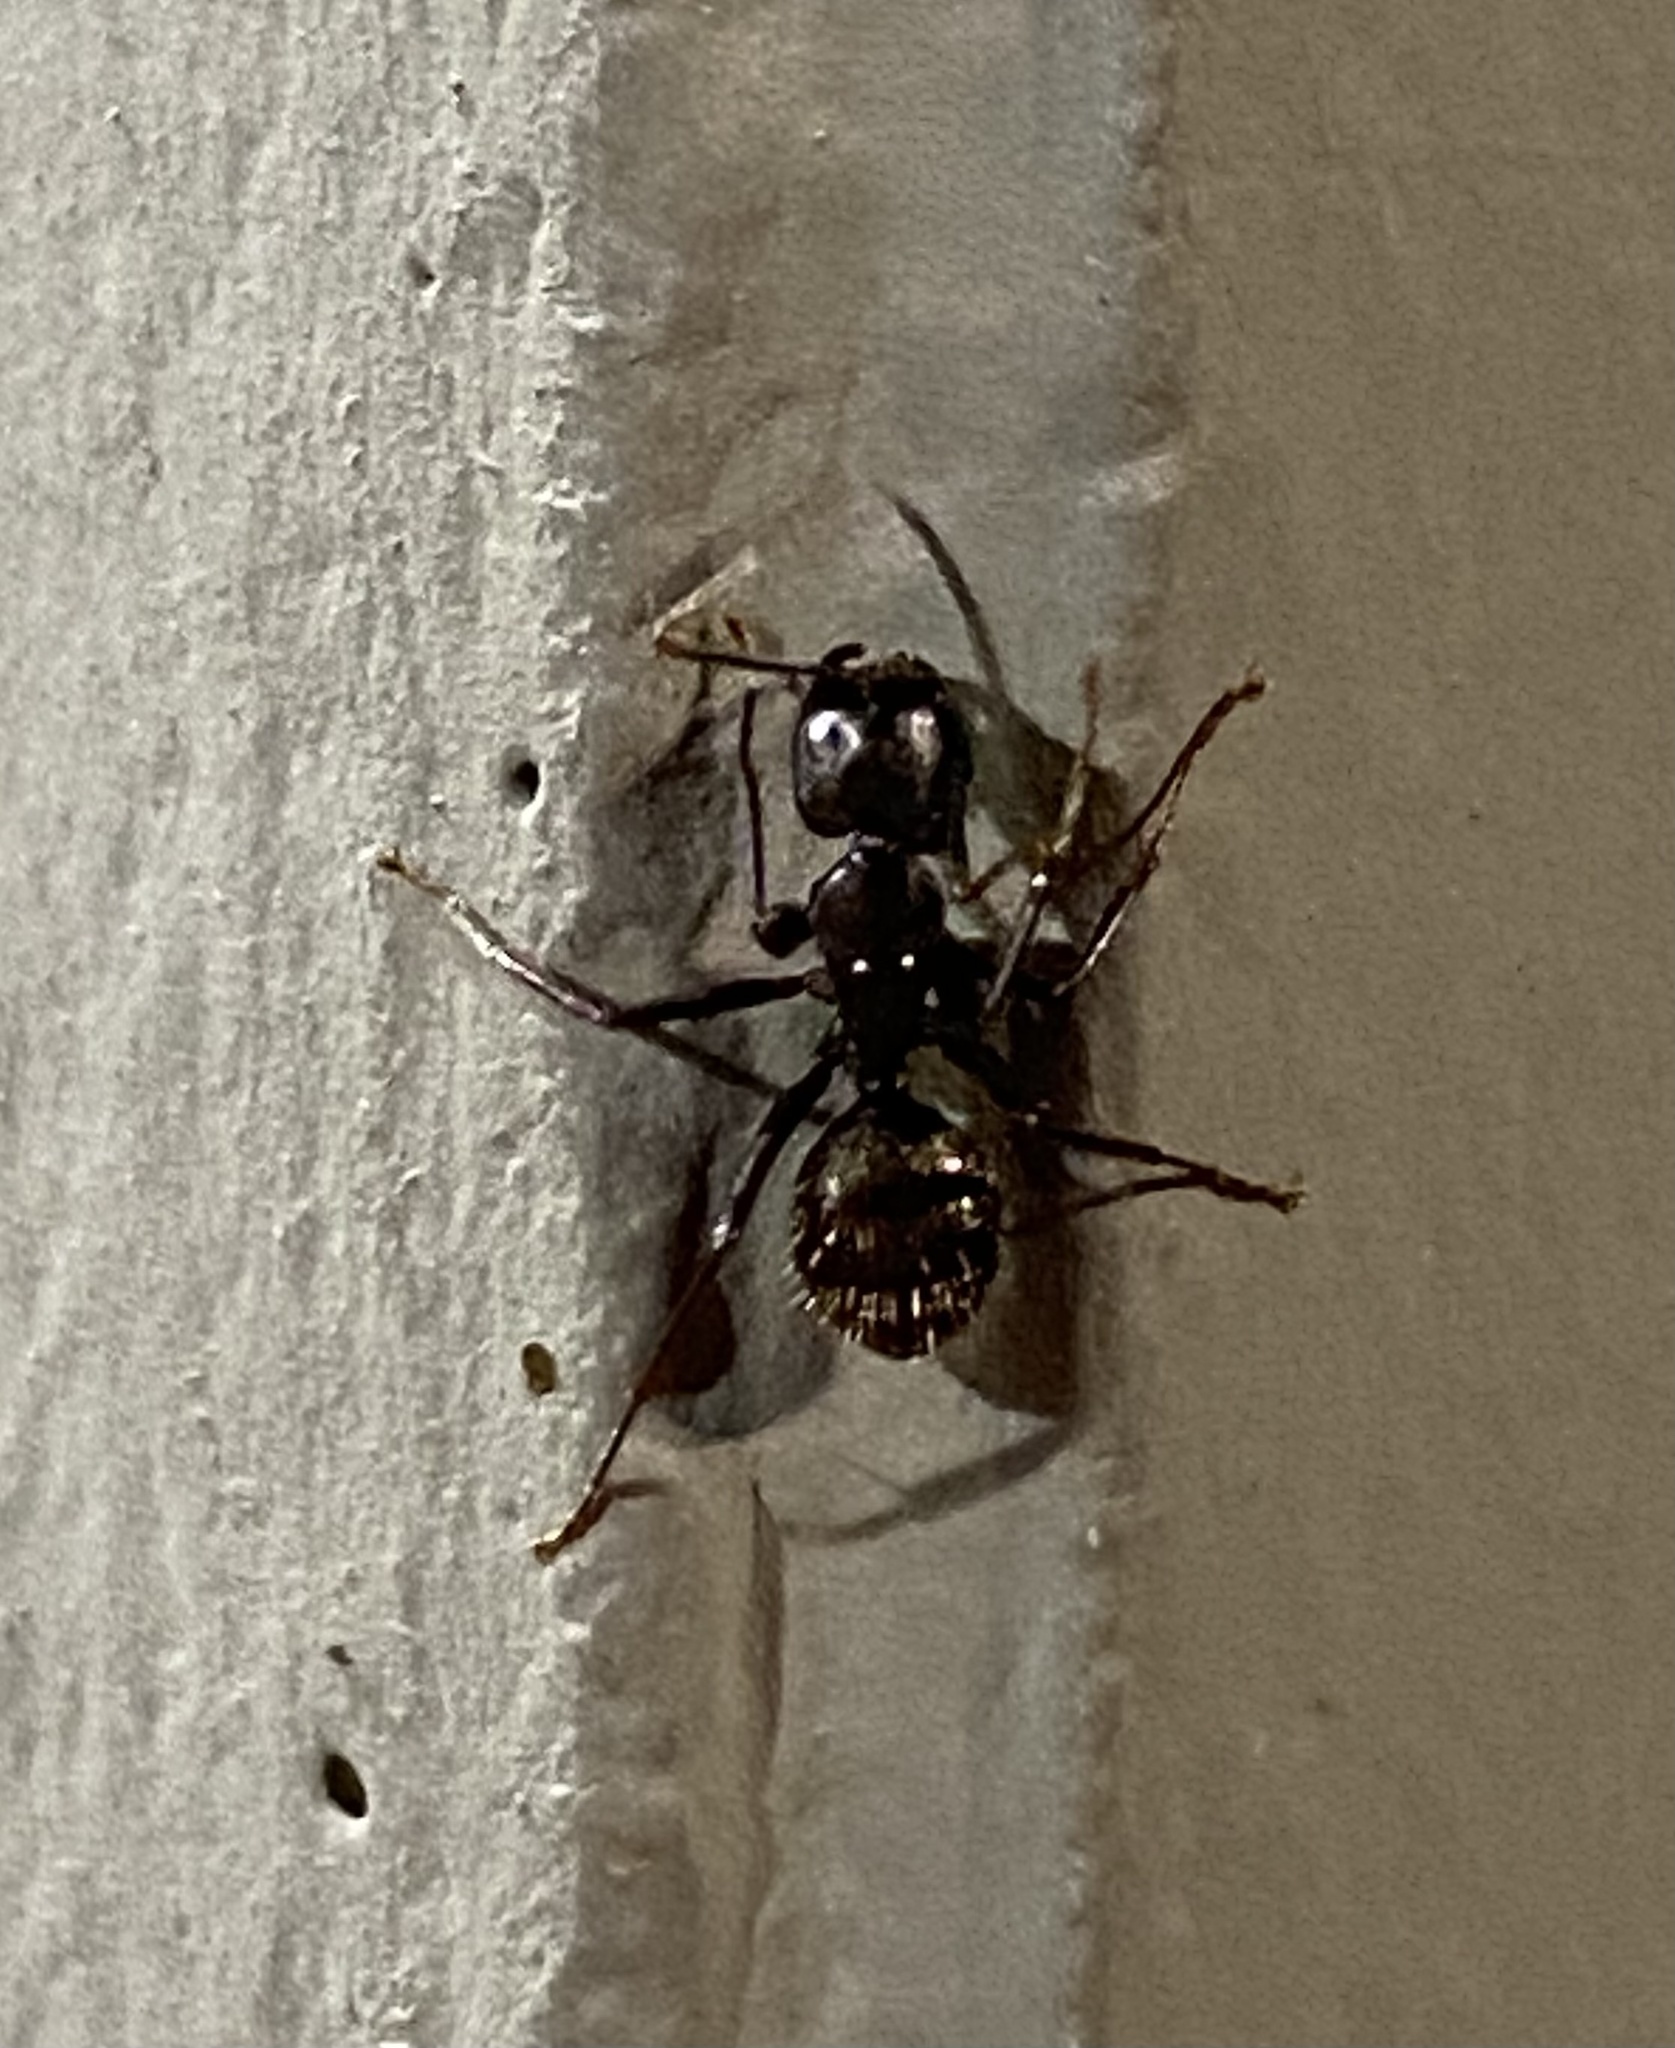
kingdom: Animalia
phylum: Arthropoda
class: Insecta
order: Hymenoptera
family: Formicidae
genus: Camponotus
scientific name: Camponotus pennsylvanicus
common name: Black carpenter ant
